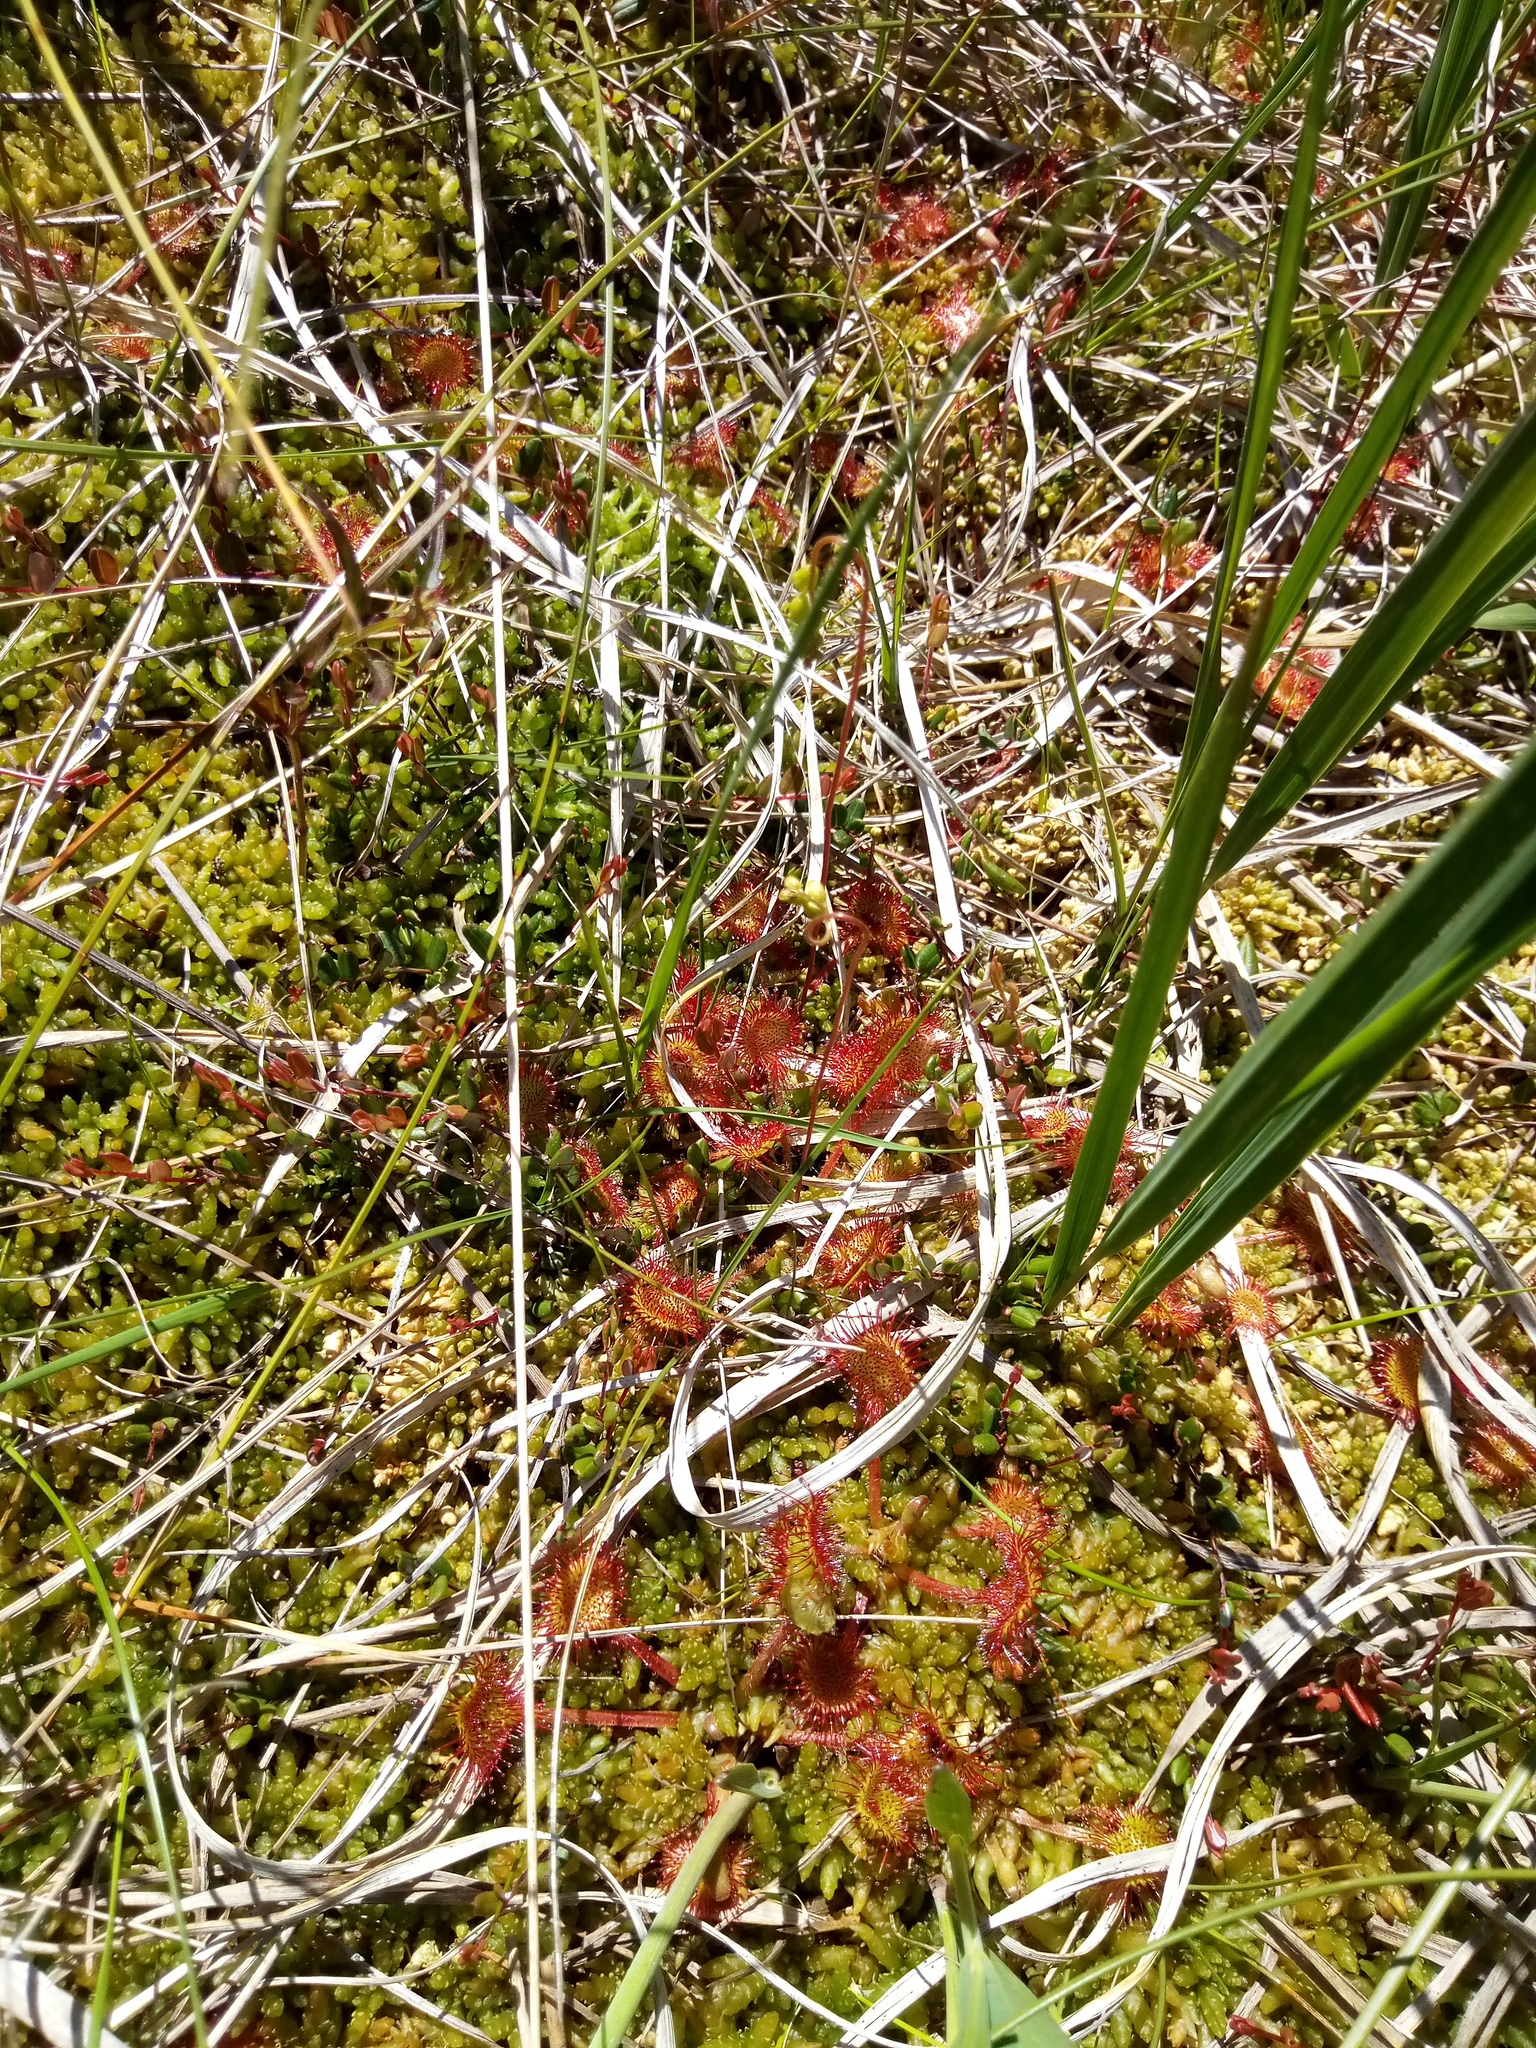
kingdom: Plantae
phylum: Tracheophyta
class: Magnoliopsida
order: Caryophyllales
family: Droseraceae
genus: Drosera
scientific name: Drosera rotundifolia
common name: Round-leaved sundew
